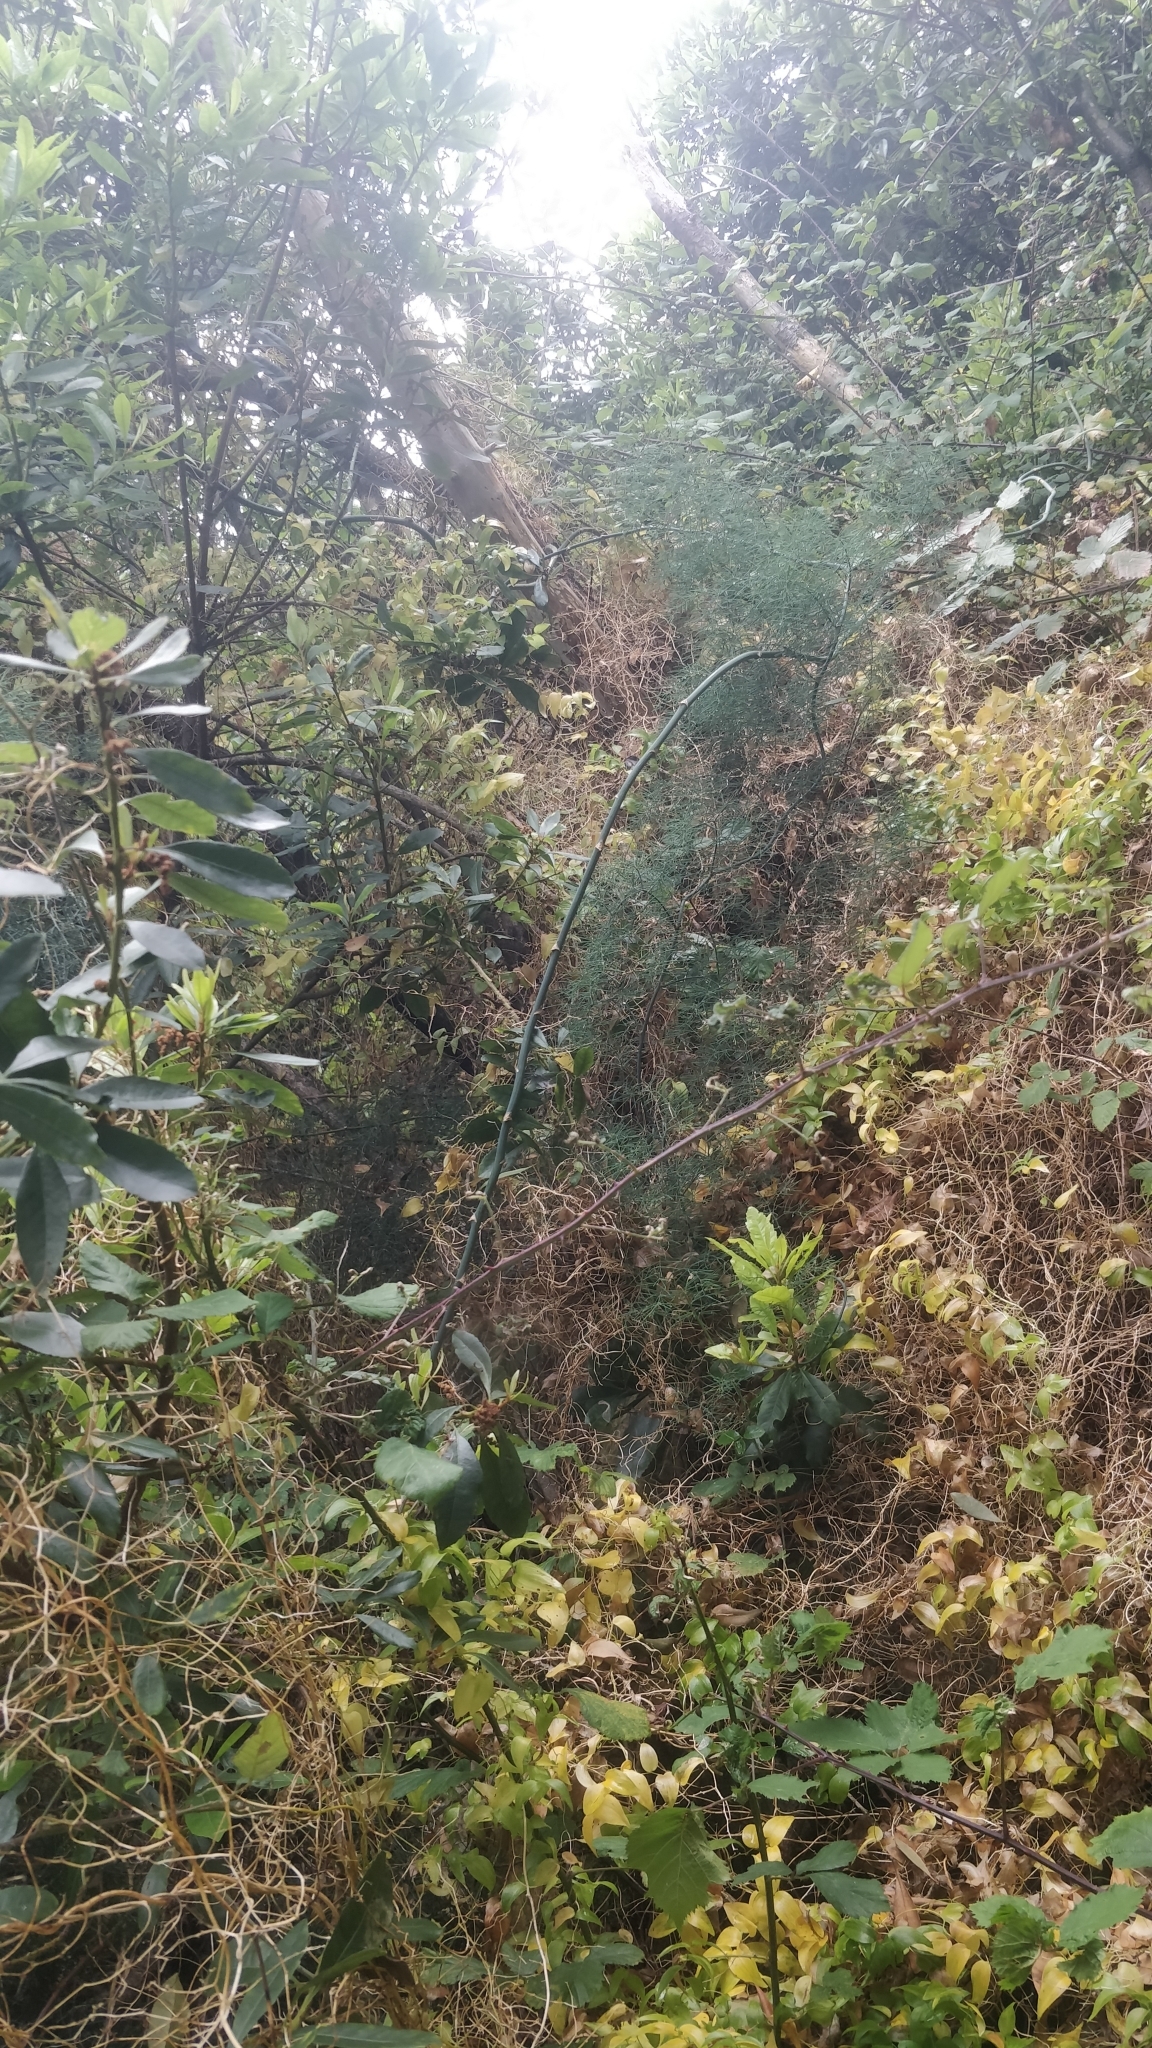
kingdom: Plantae
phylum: Tracheophyta
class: Liliopsida
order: Asparagales
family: Asparagaceae
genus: Asparagus
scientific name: Asparagus umbellatus
